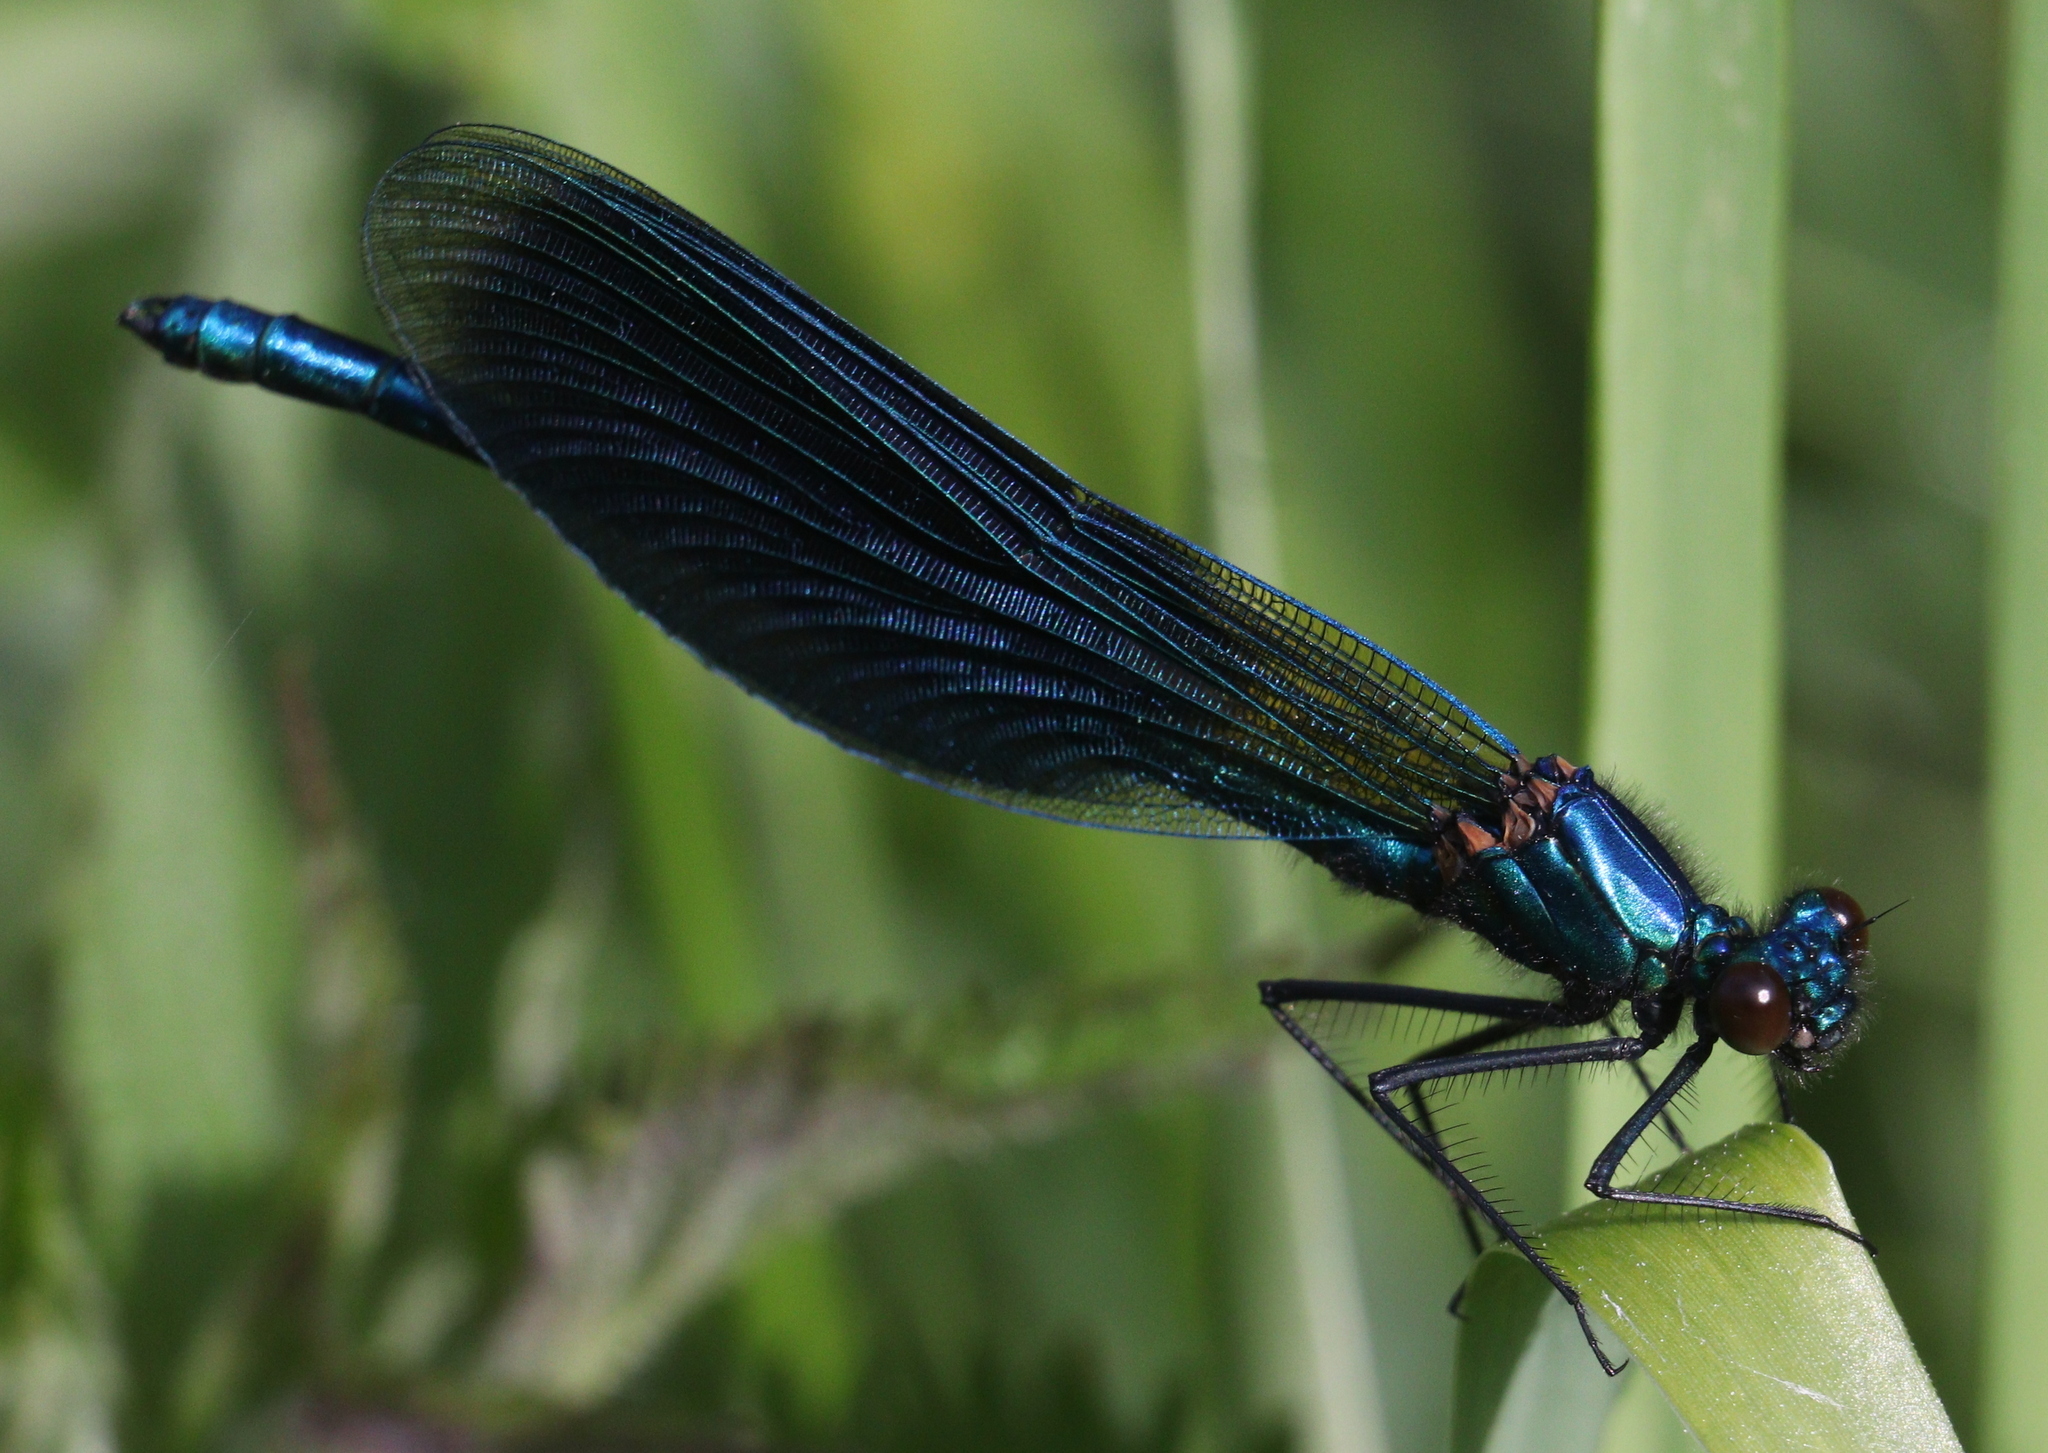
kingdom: Animalia
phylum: Arthropoda
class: Insecta
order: Odonata
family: Calopterygidae
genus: Calopteryx
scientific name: Calopteryx splendens
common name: Banded demoiselle
